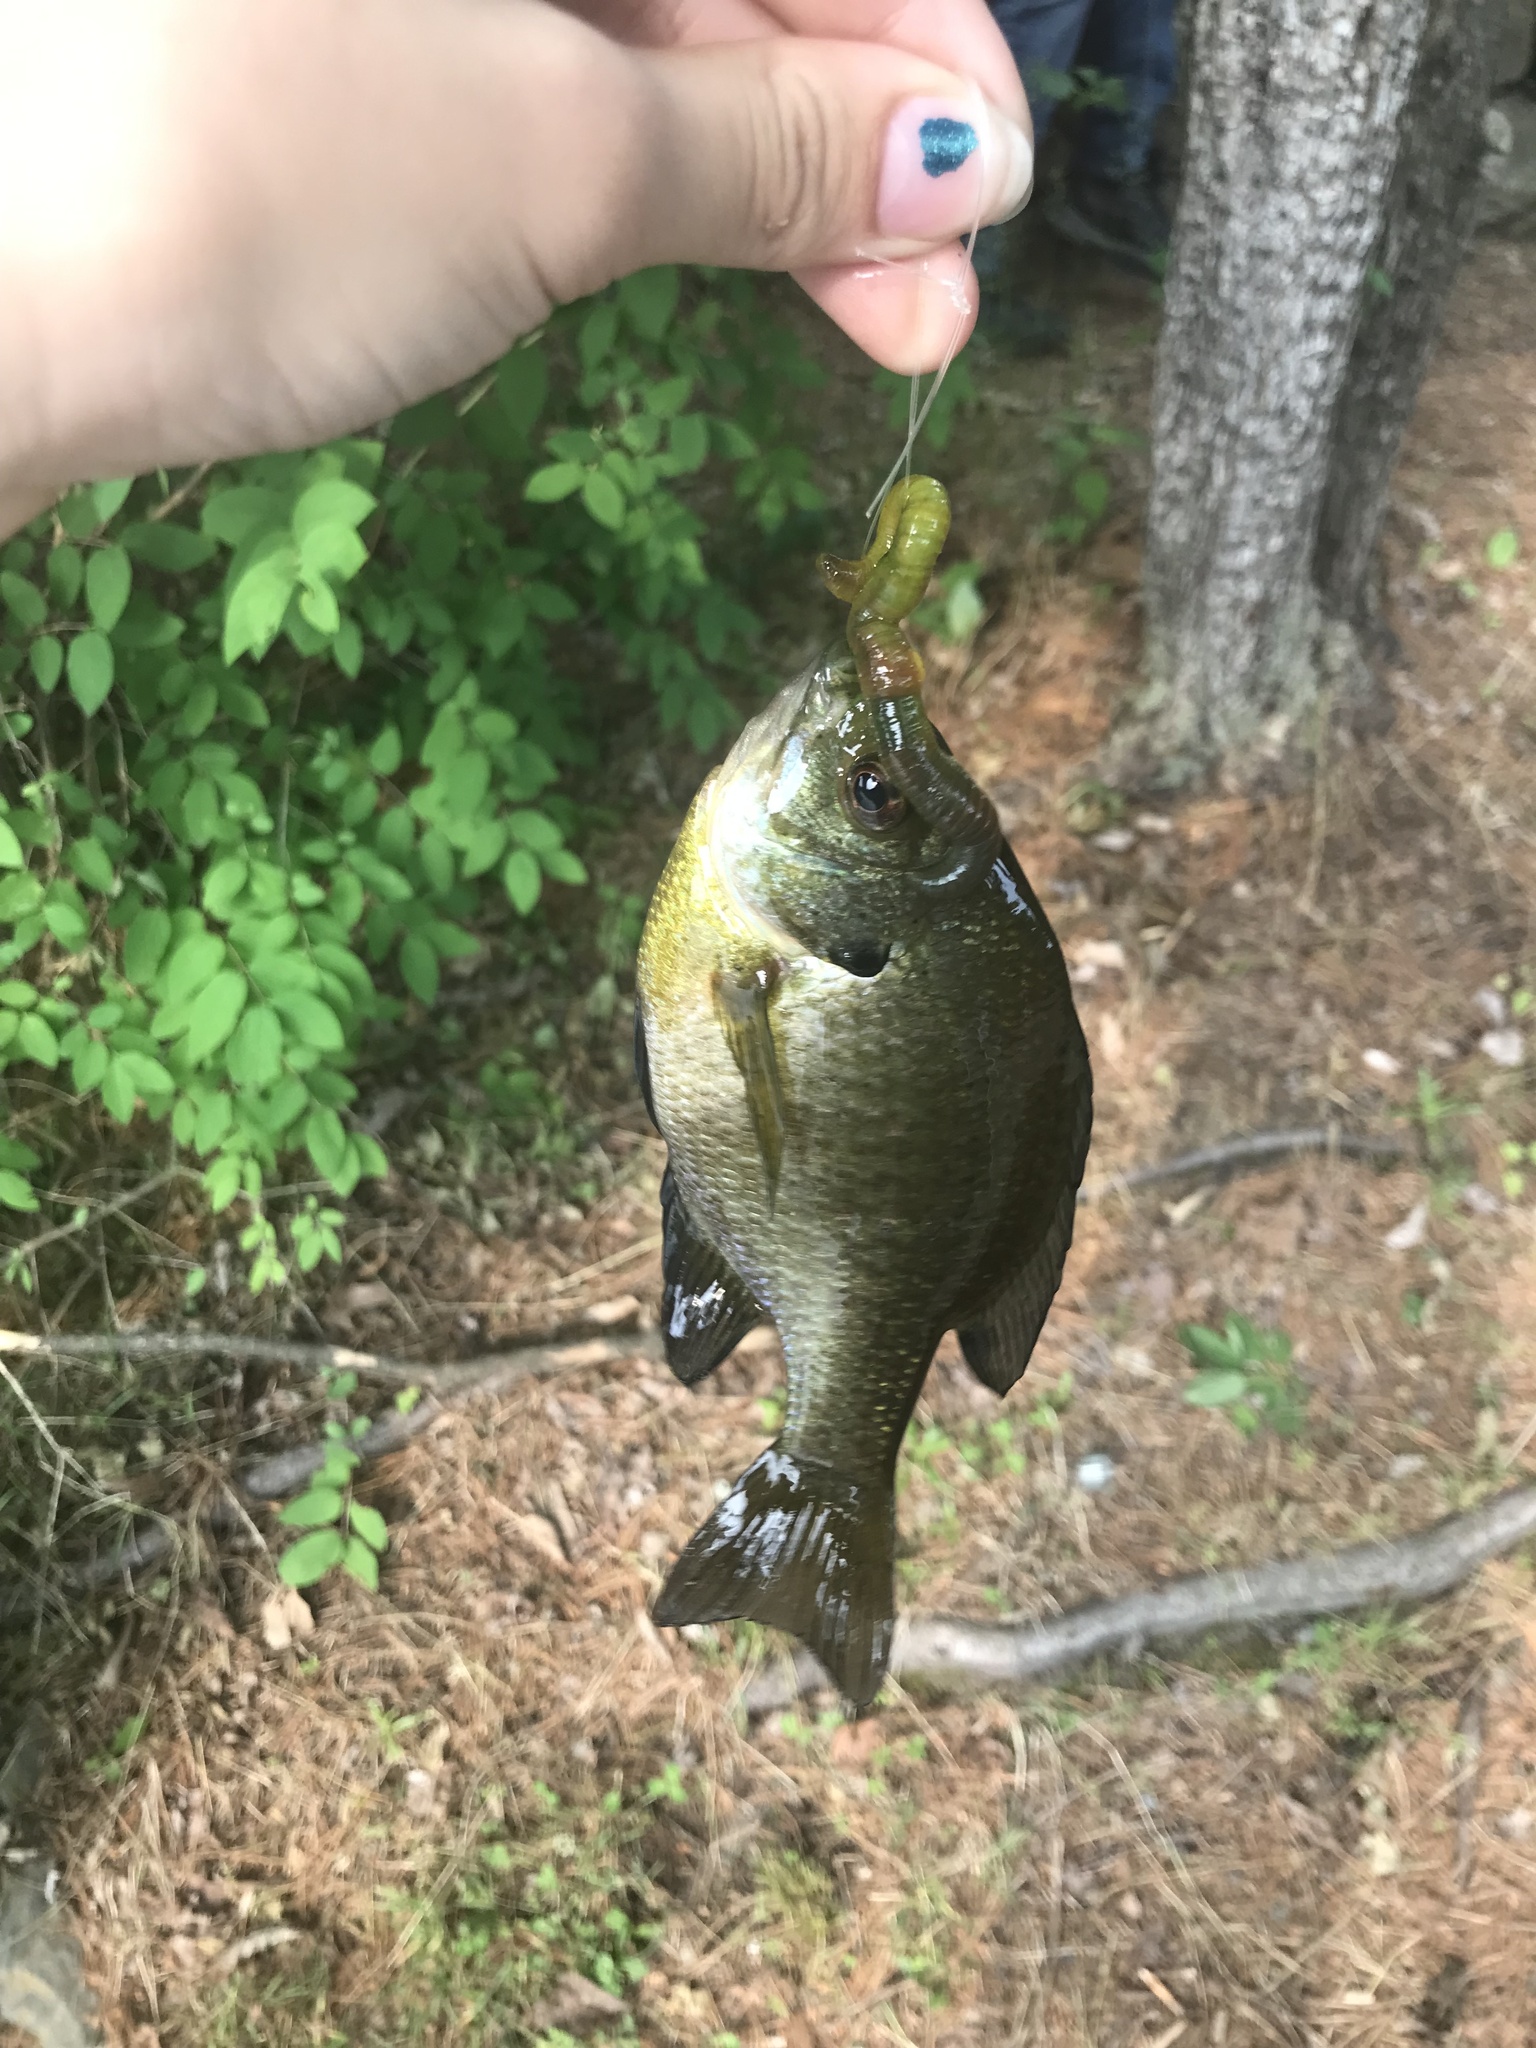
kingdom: Animalia
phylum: Chordata
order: Perciformes
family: Centrarchidae
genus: Lepomis
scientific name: Lepomis macrochirus
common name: Bluegill
